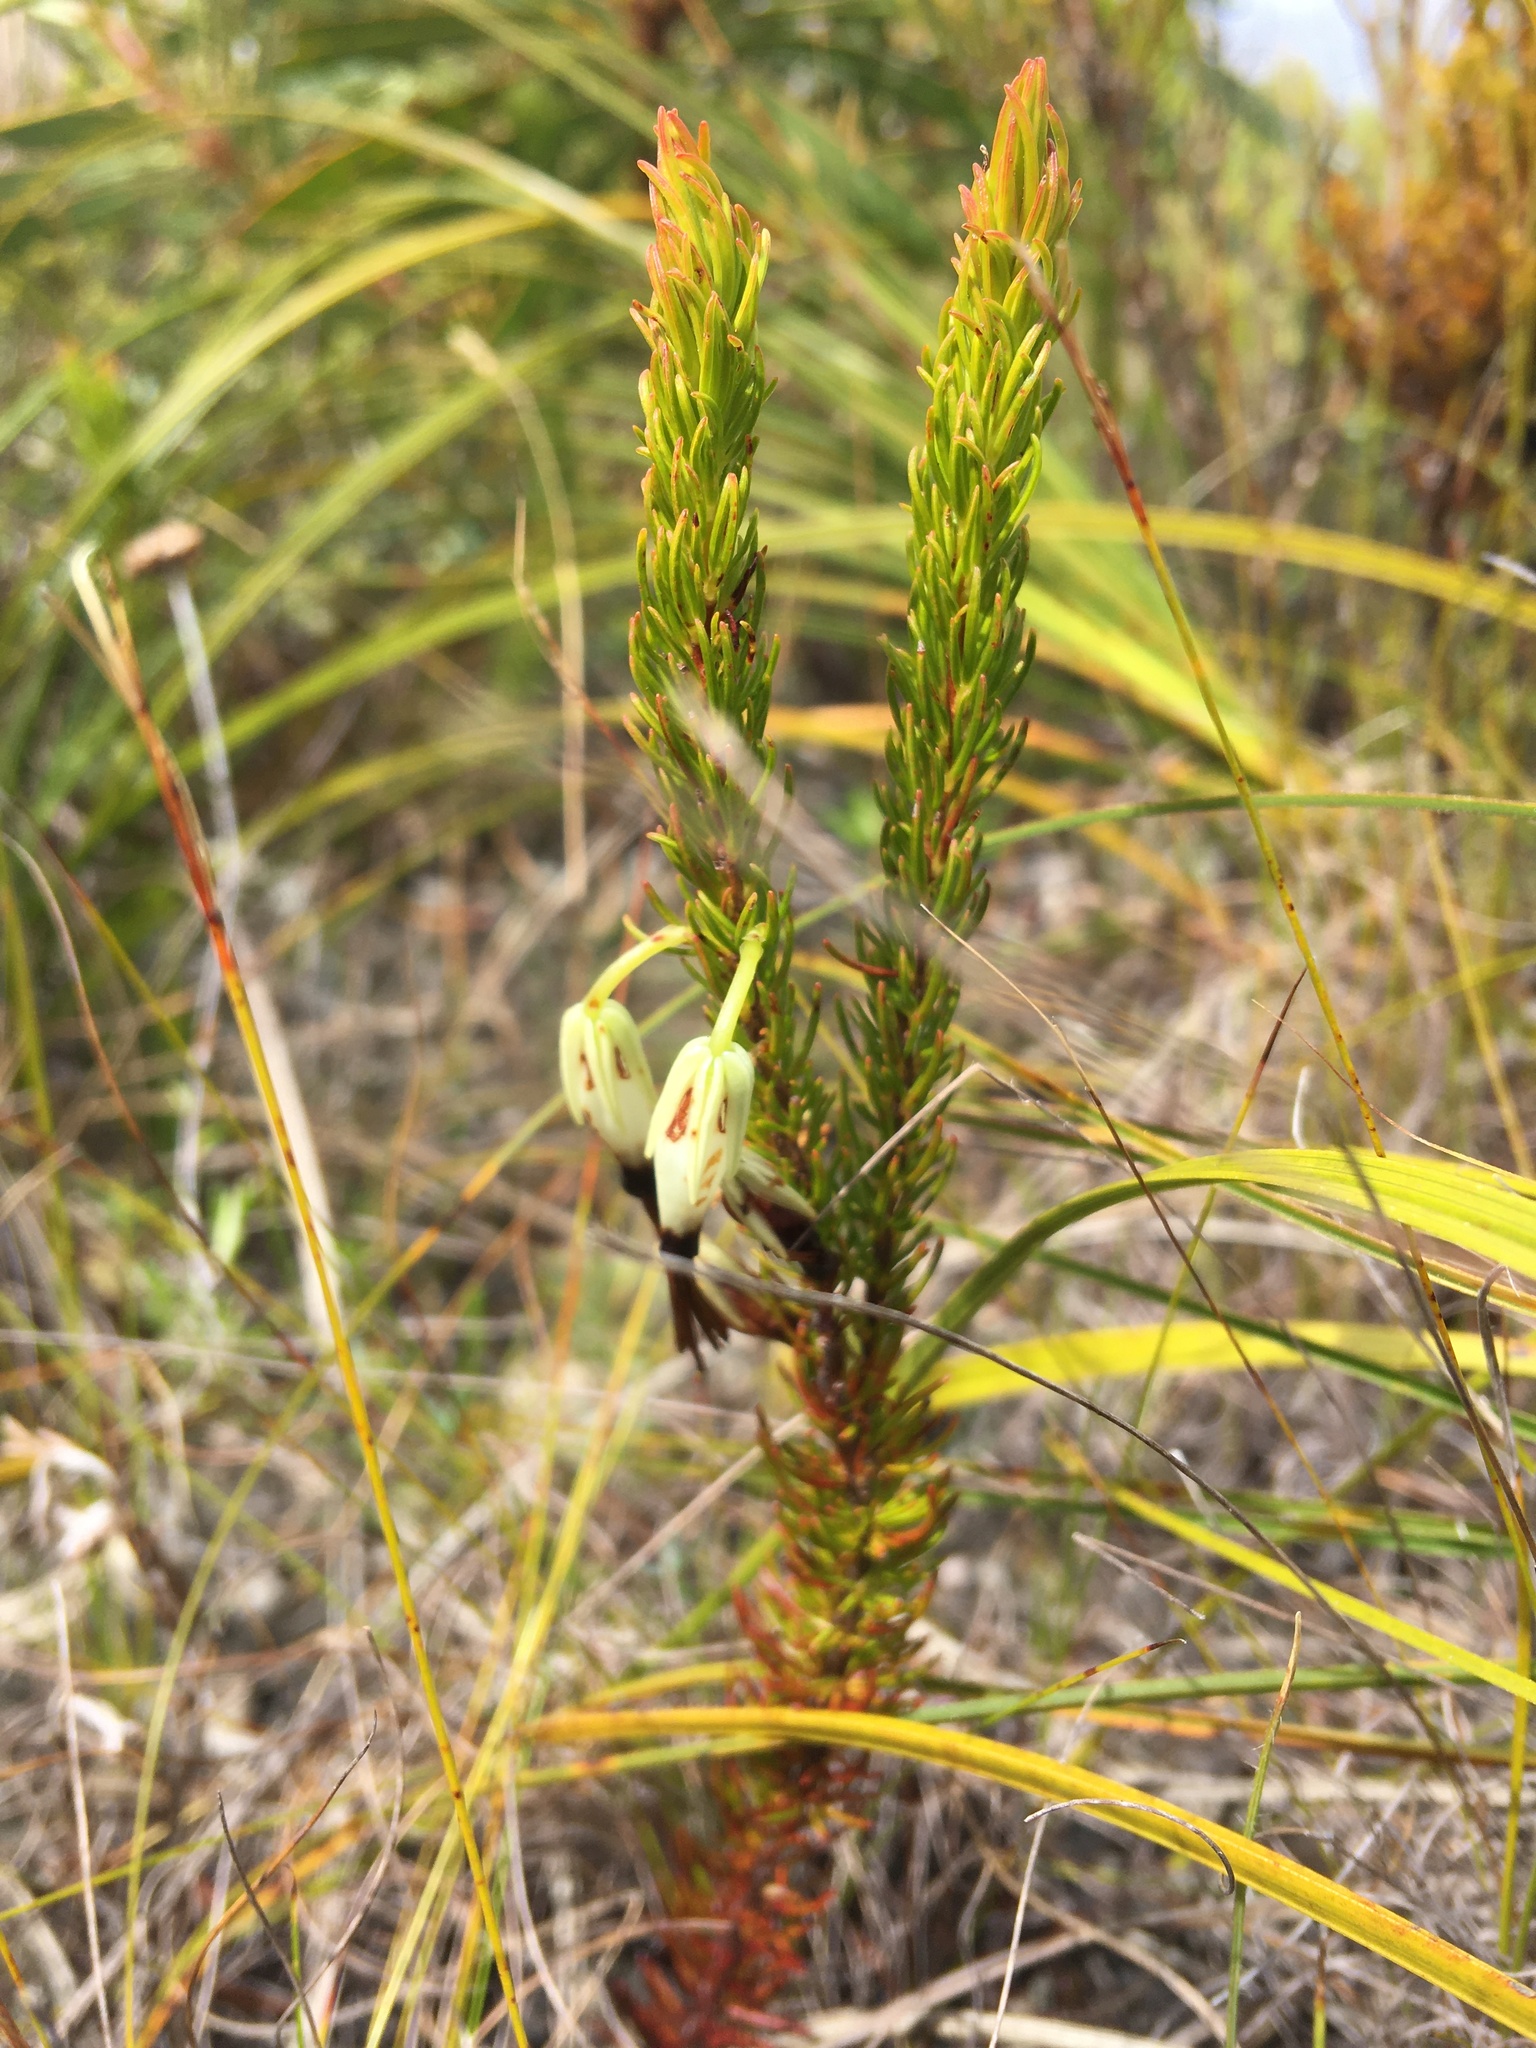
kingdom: Plantae
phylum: Tracheophyta
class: Magnoliopsida
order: Ericales
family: Ericaceae
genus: Erica
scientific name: Erica plukenetii
